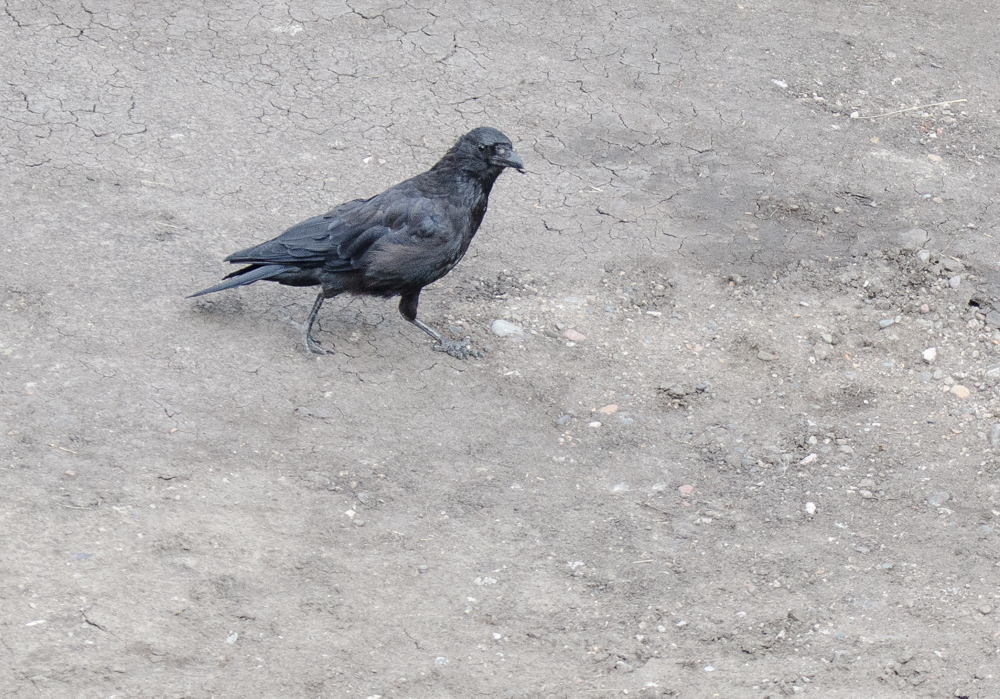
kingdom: Animalia
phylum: Chordata
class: Aves
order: Passeriformes
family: Corvidae
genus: Corvus
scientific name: Corvus corax
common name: Common raven
